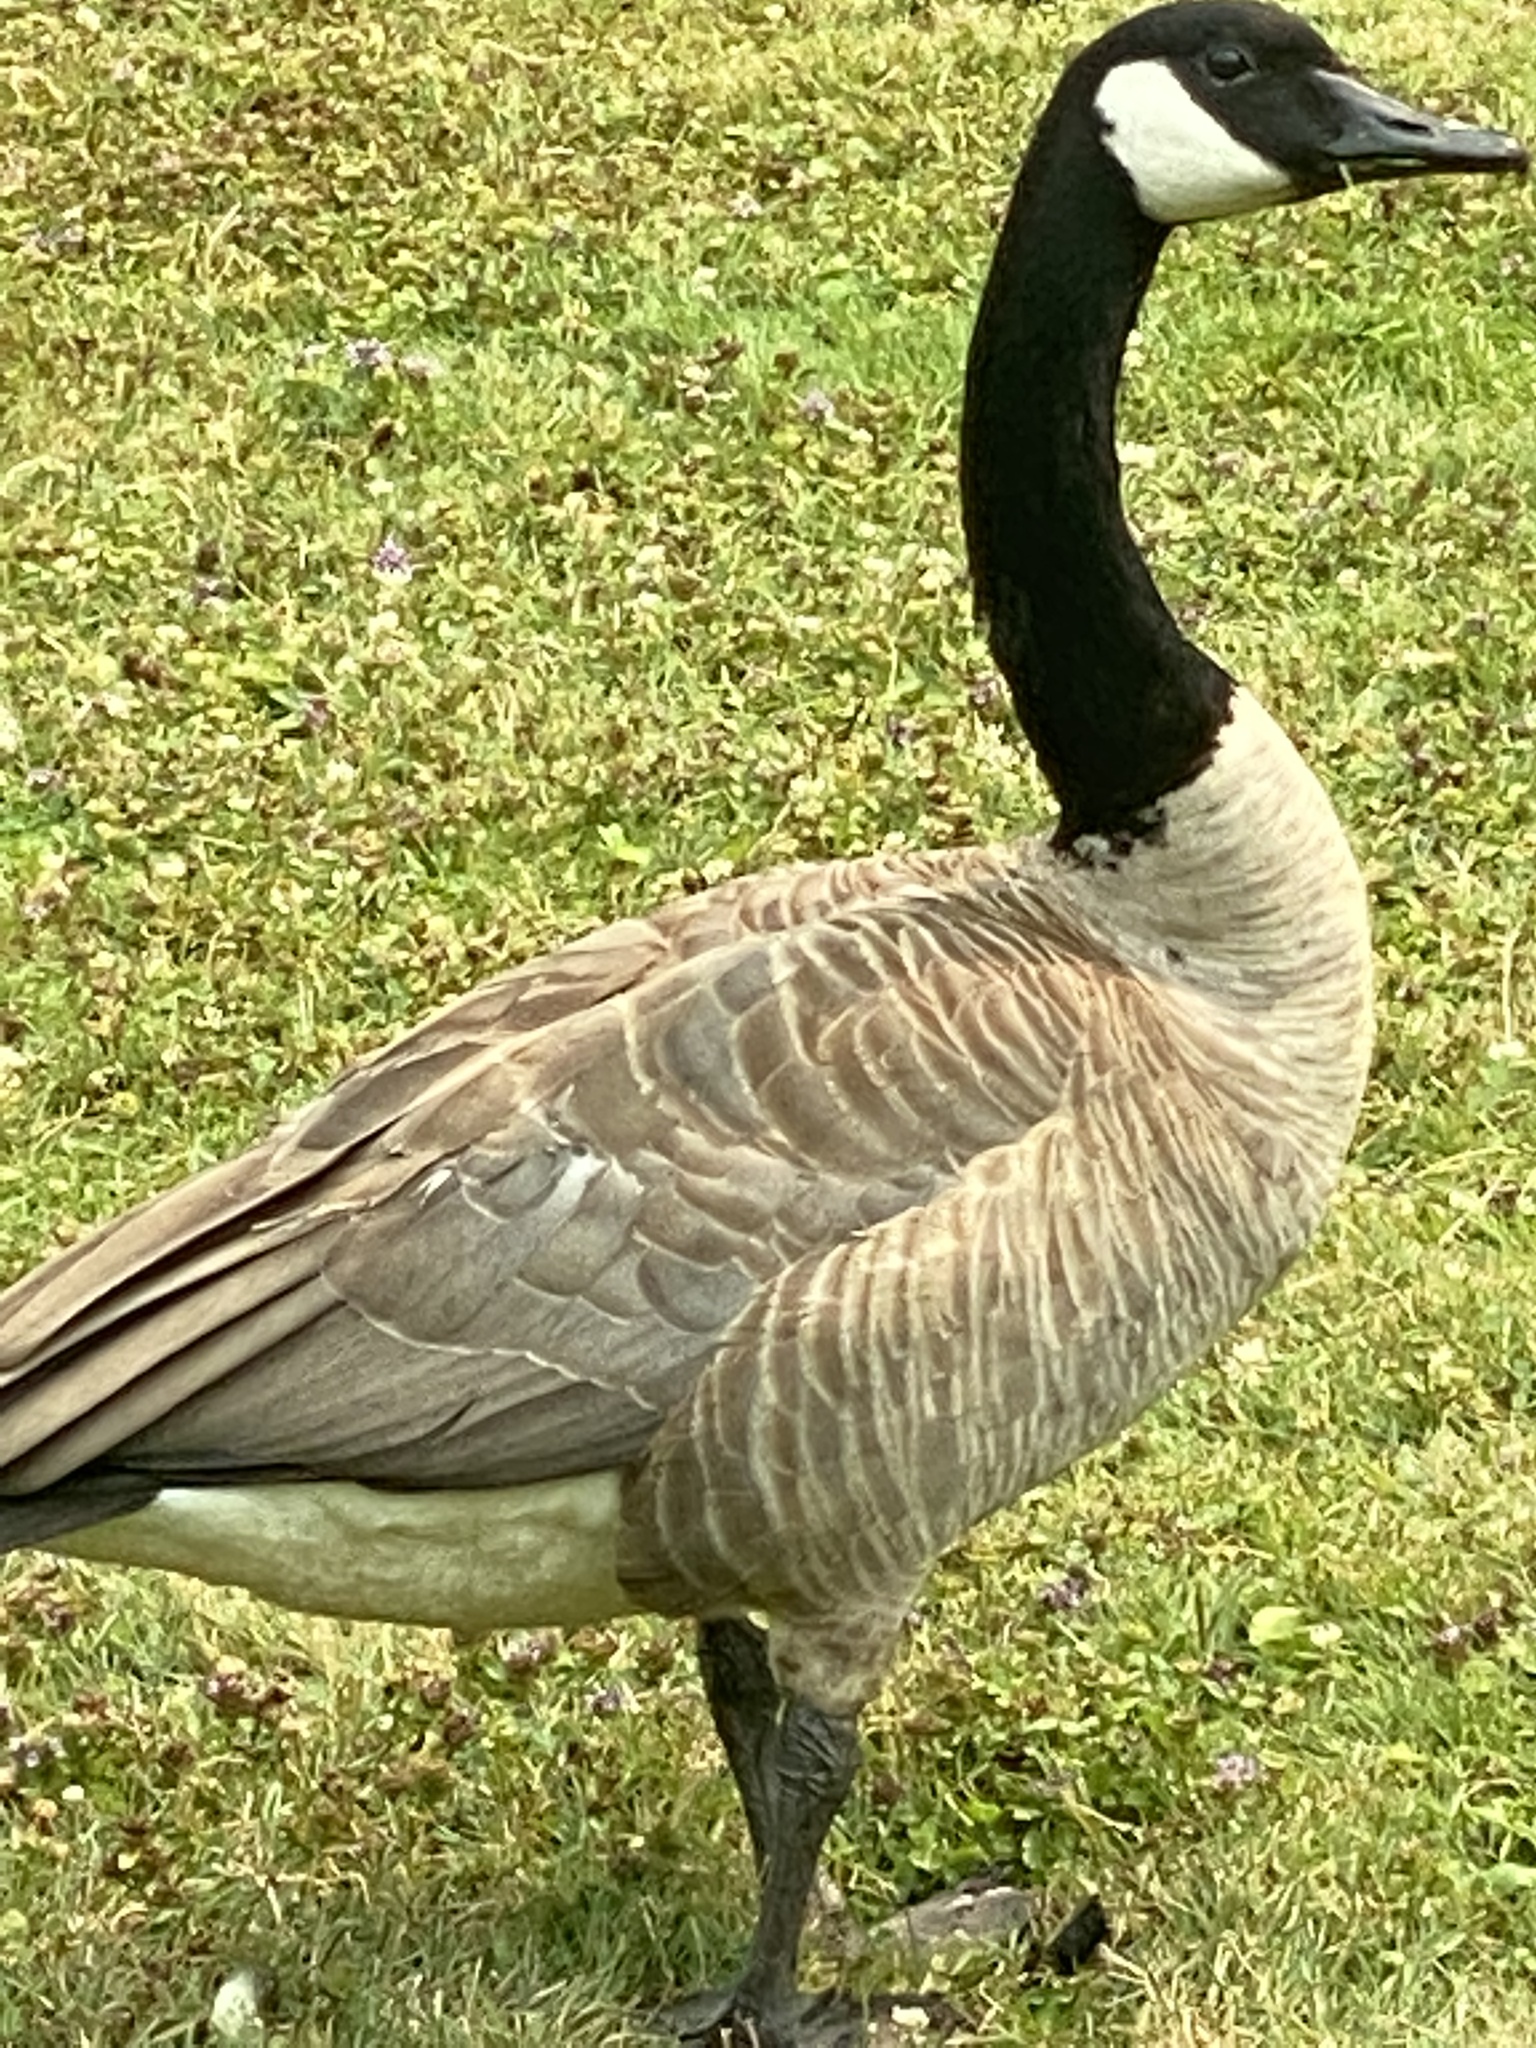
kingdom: Animalia
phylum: Chordata
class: Aves
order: Anseriformes
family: Anatidae
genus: Branta
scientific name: Branta canadensis
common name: Canada goose
